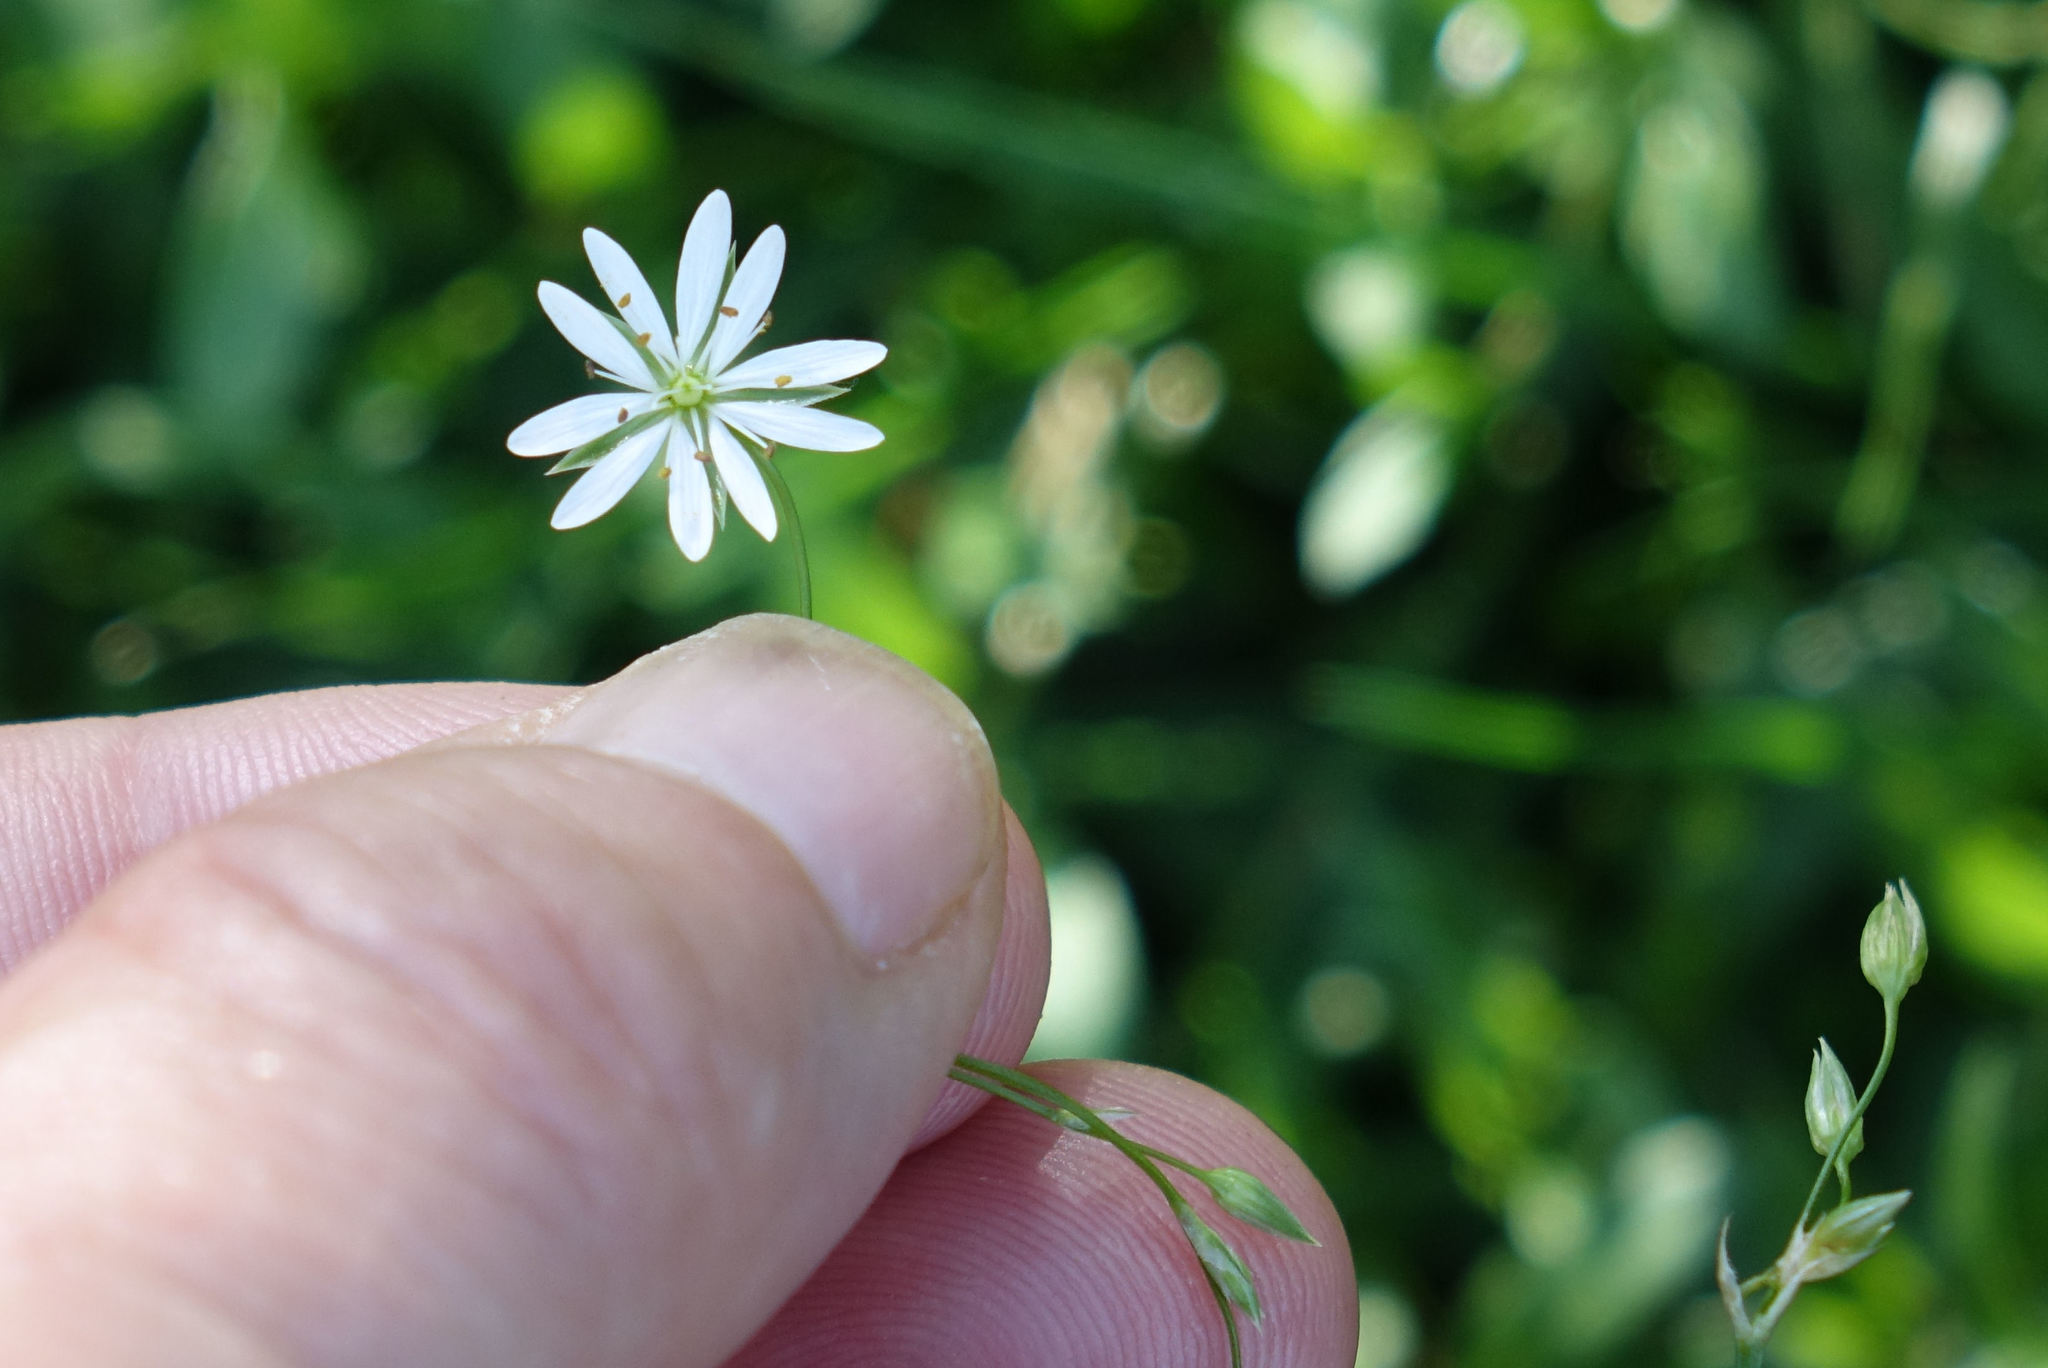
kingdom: Plantae
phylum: Tracheophyta
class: Magnoliopsida
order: Caryophyllales
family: Caryophyllaceae
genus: Stellaria
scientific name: Stellaria alsine
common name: Bog stitchwort
